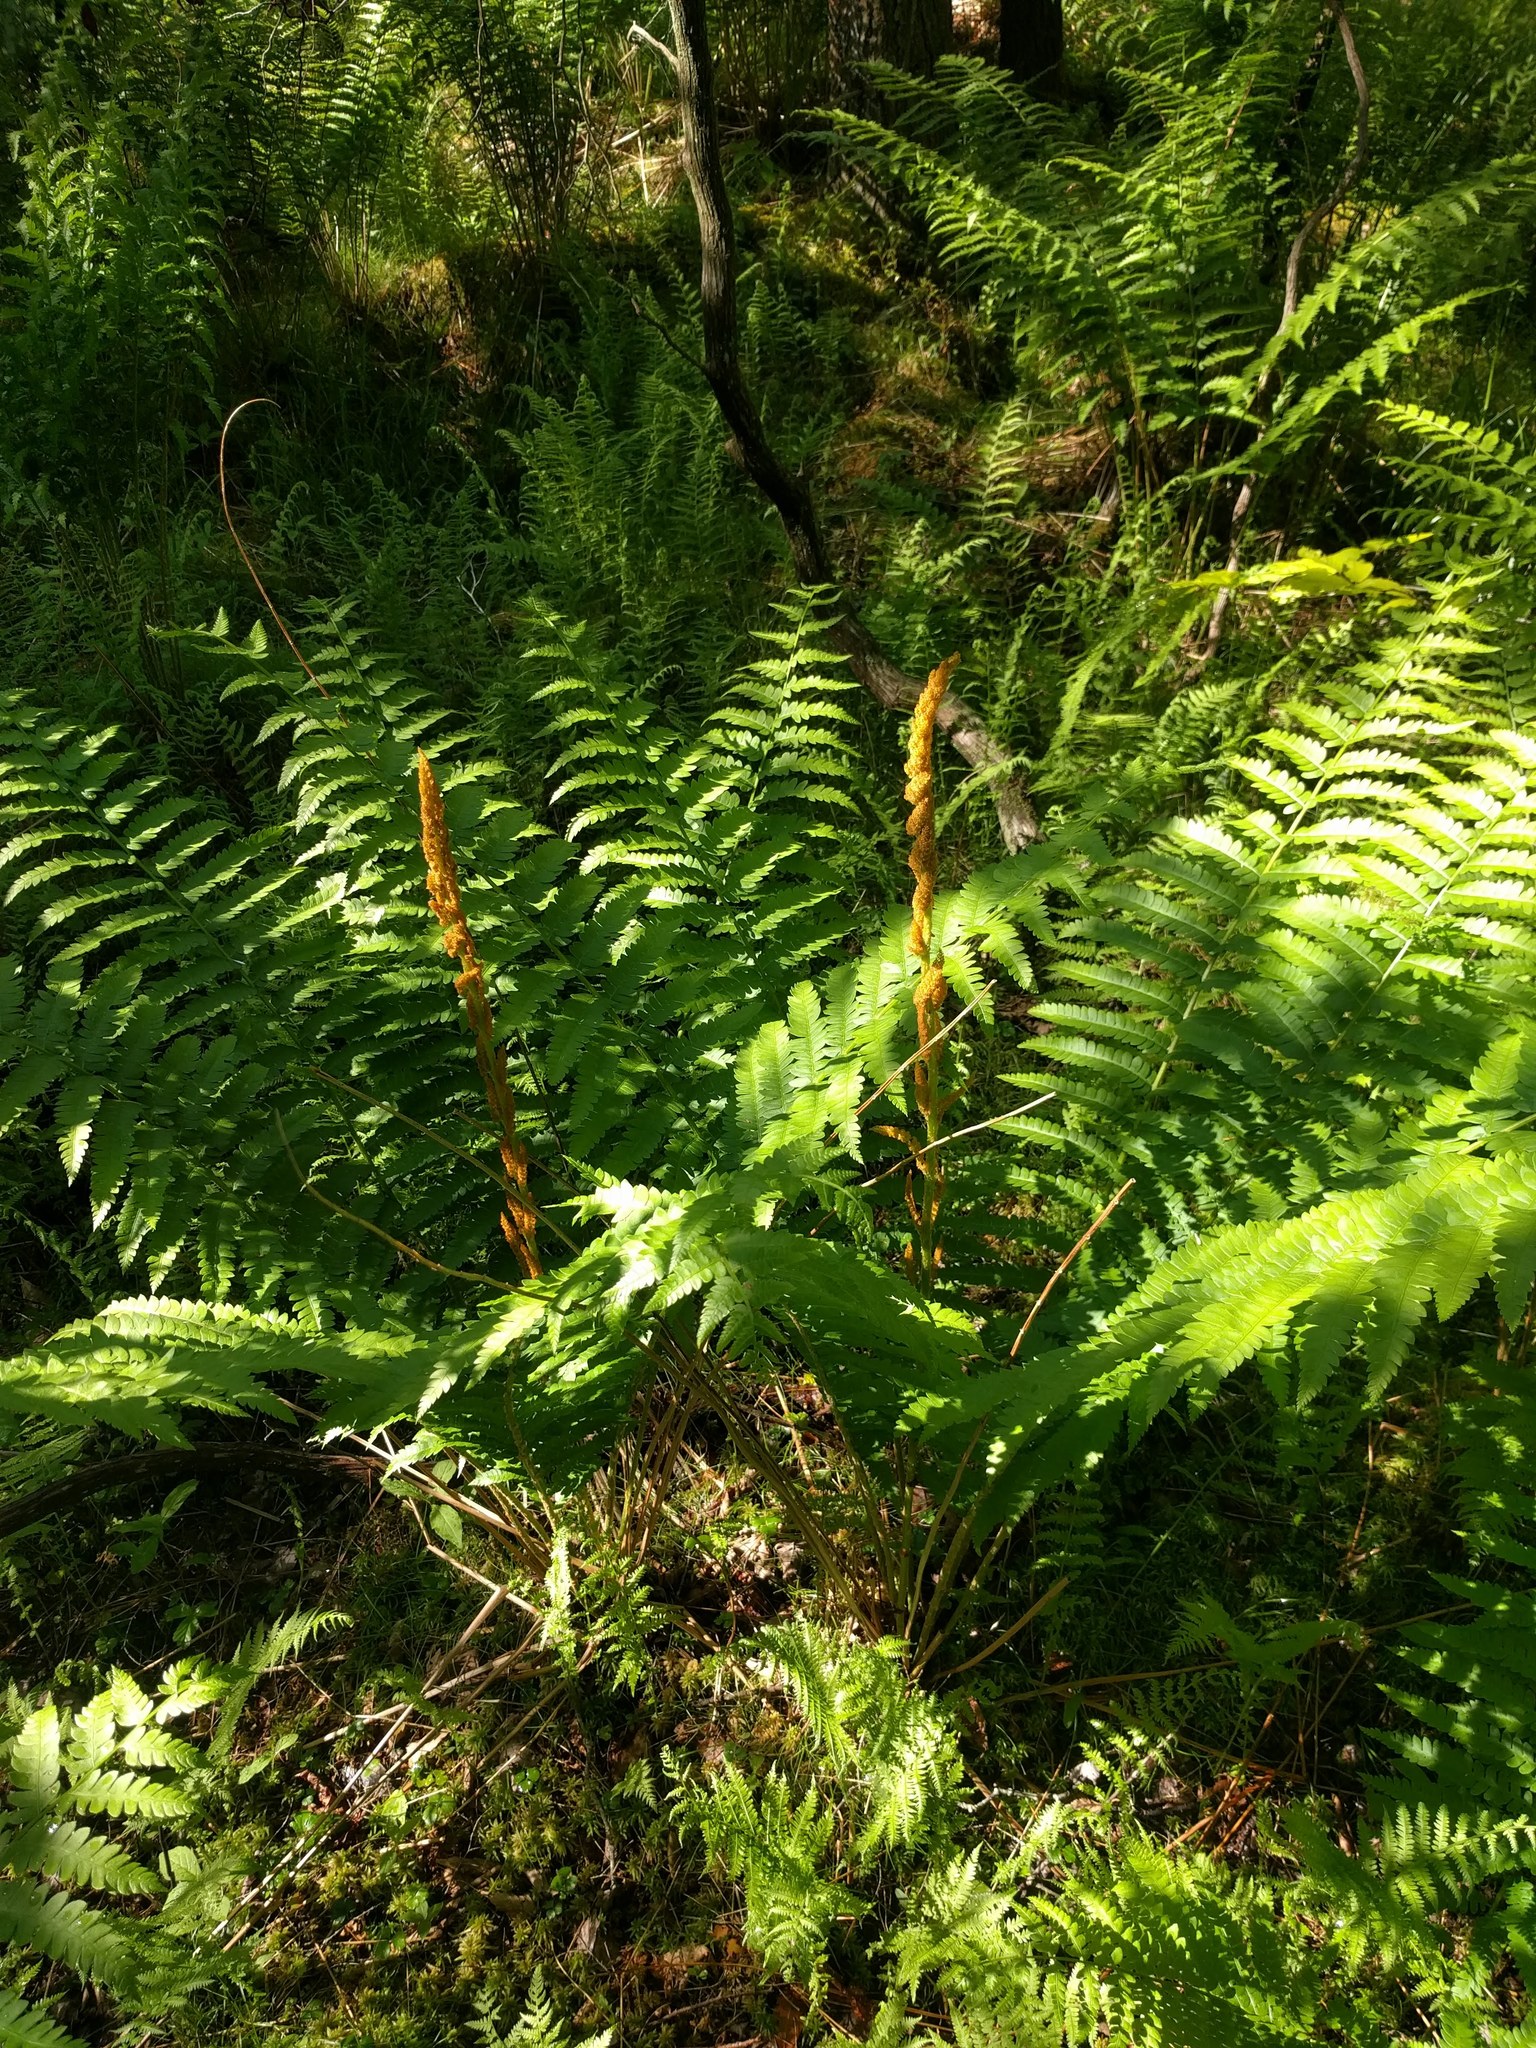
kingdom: Plantae
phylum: Tracheophyta
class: Polypodiopsida
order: Osmundales
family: Osmundaceae
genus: Osmundastrum
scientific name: Osmundastrum cinnamomeum
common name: Cinnamon fern
